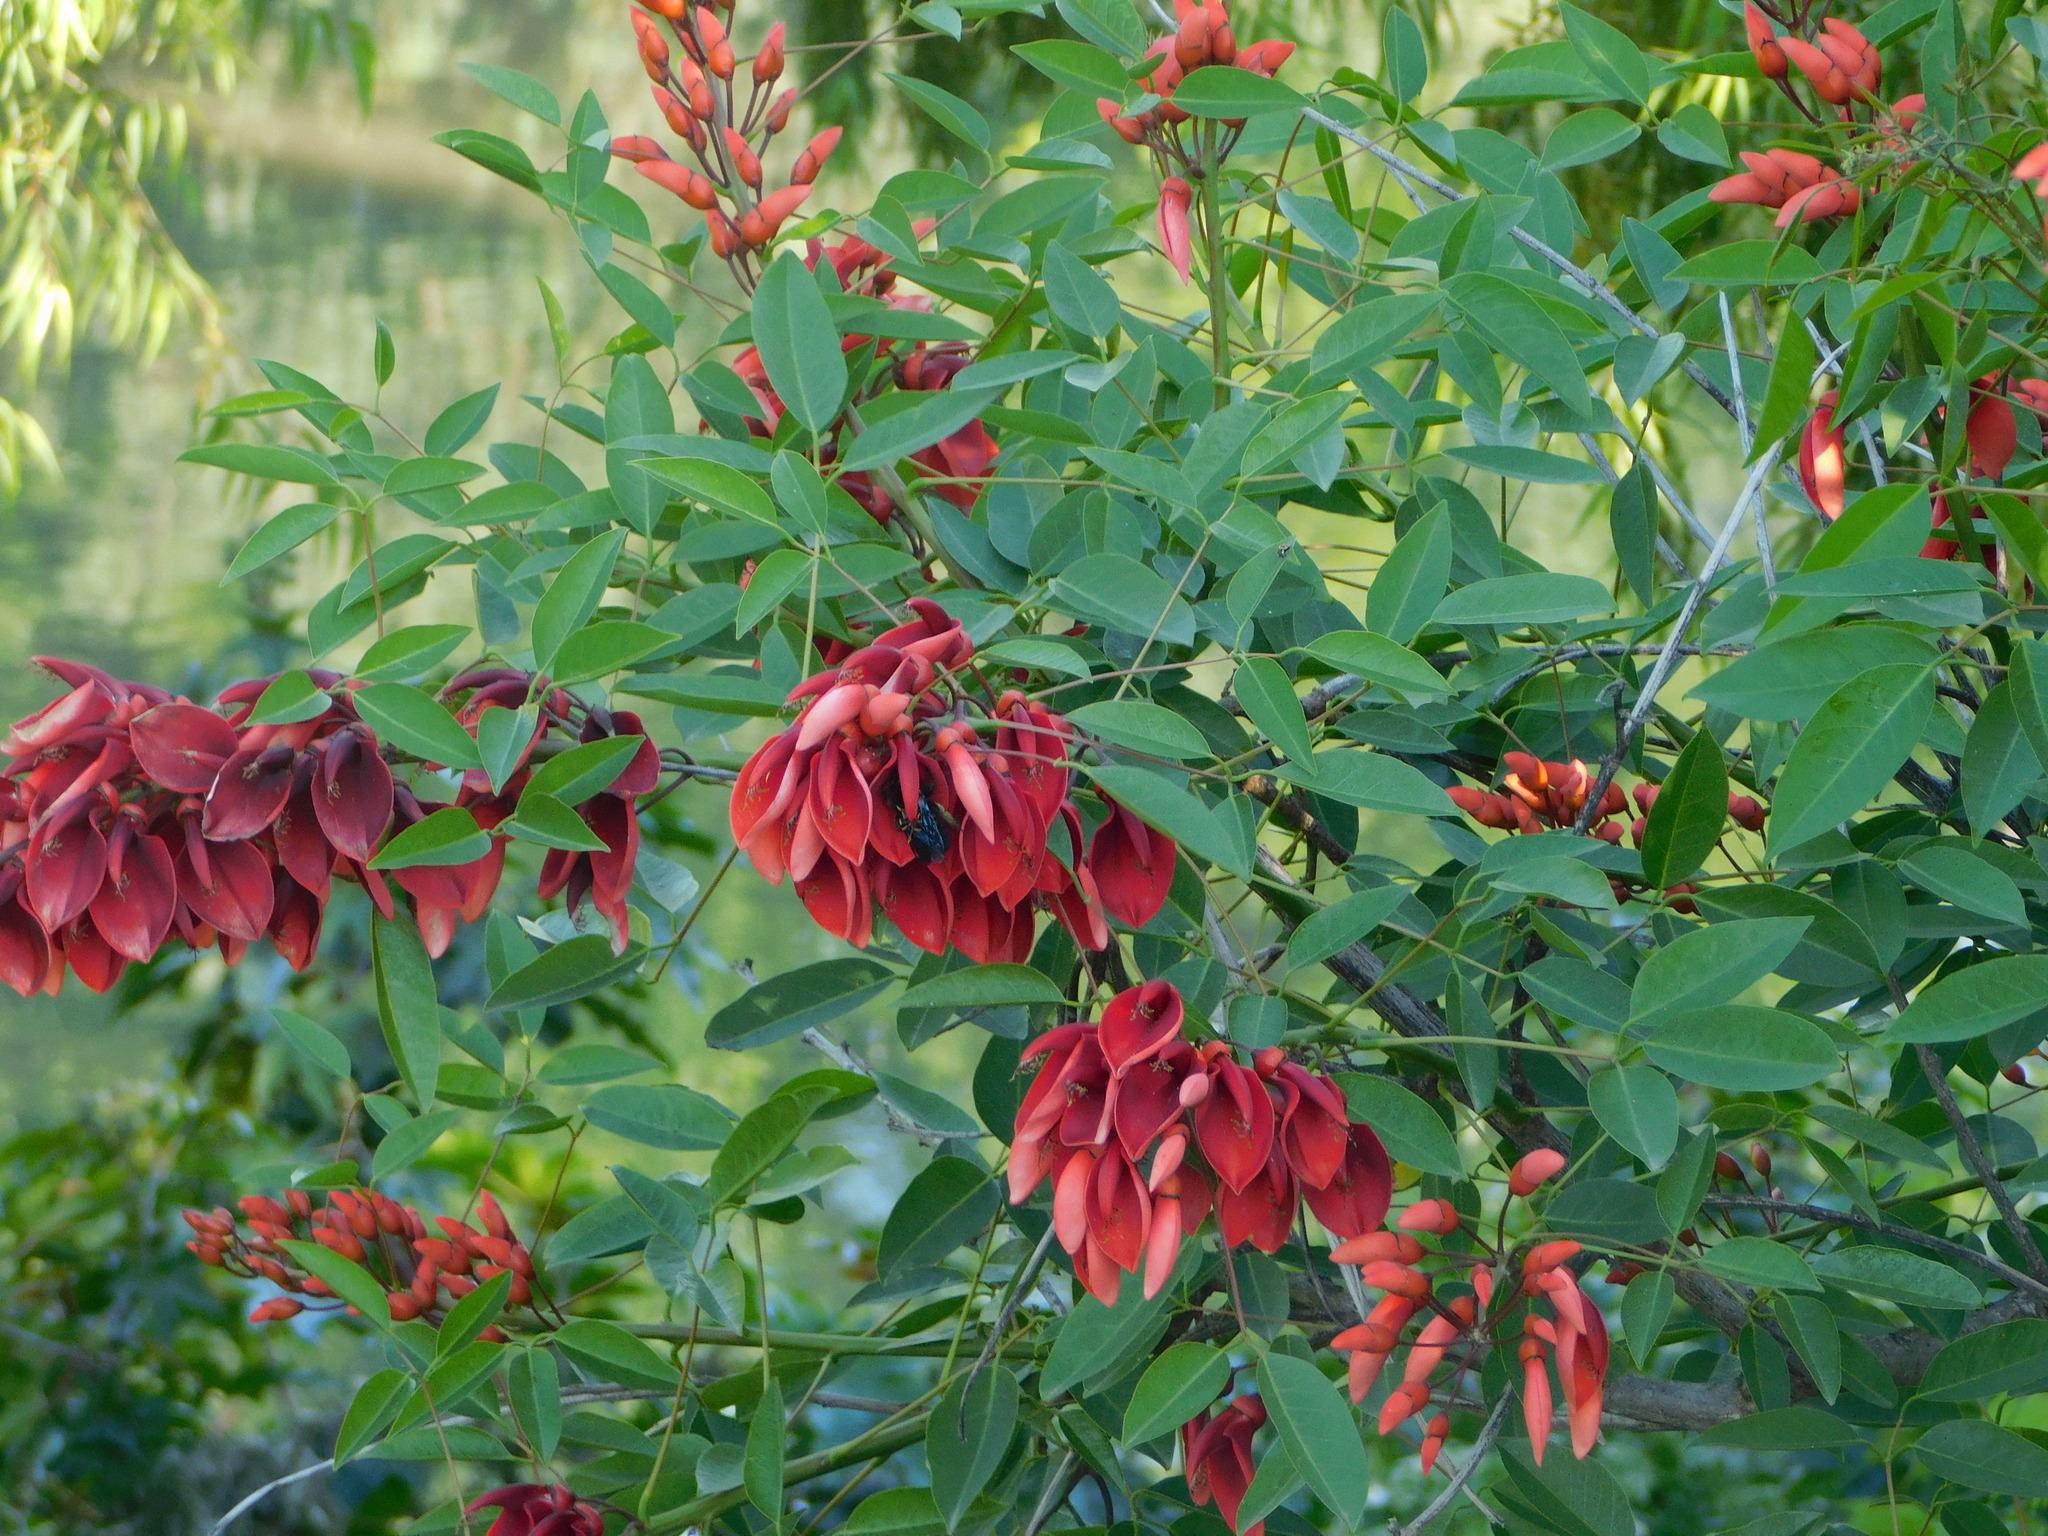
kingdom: Plantae
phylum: Tracheophyta
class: Magnoliopsida
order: Fabales
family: Fabaceae
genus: Erythrina
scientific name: Erythrina crista-galli
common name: Cockspur coral tree
